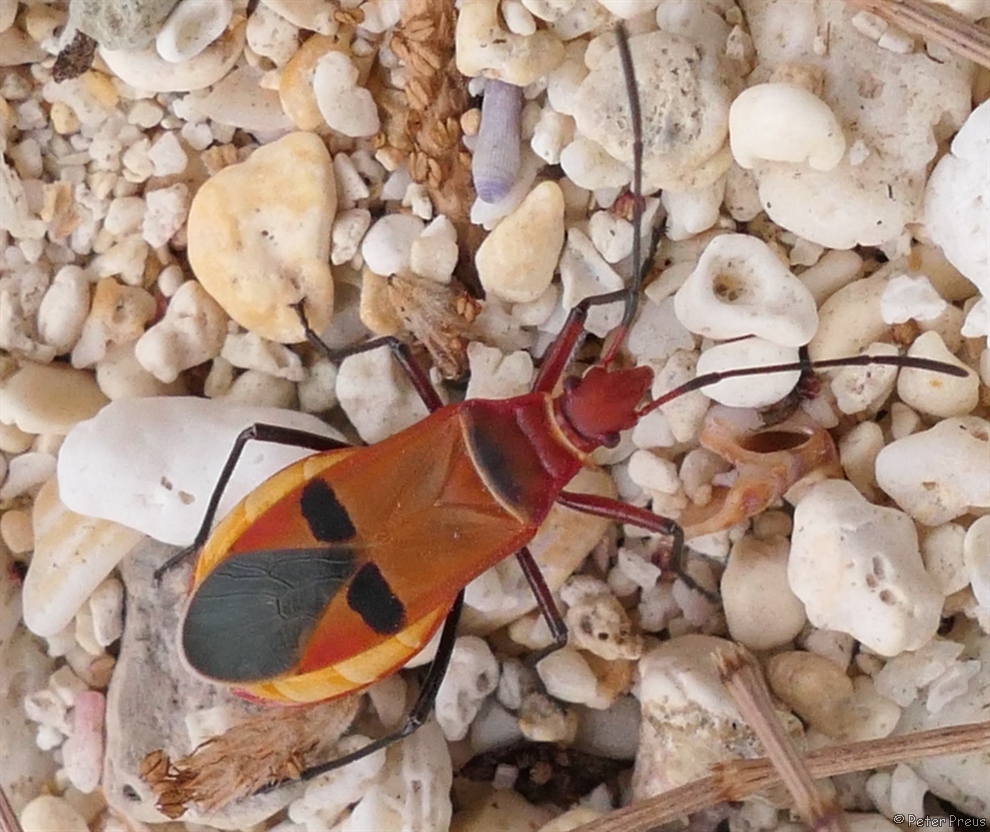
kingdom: Animalia
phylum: Arthropoda
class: Insecta
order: Hemiptera
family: Pyrrhocoridae
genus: Dysdercus
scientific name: Dysdercus fasciatus
